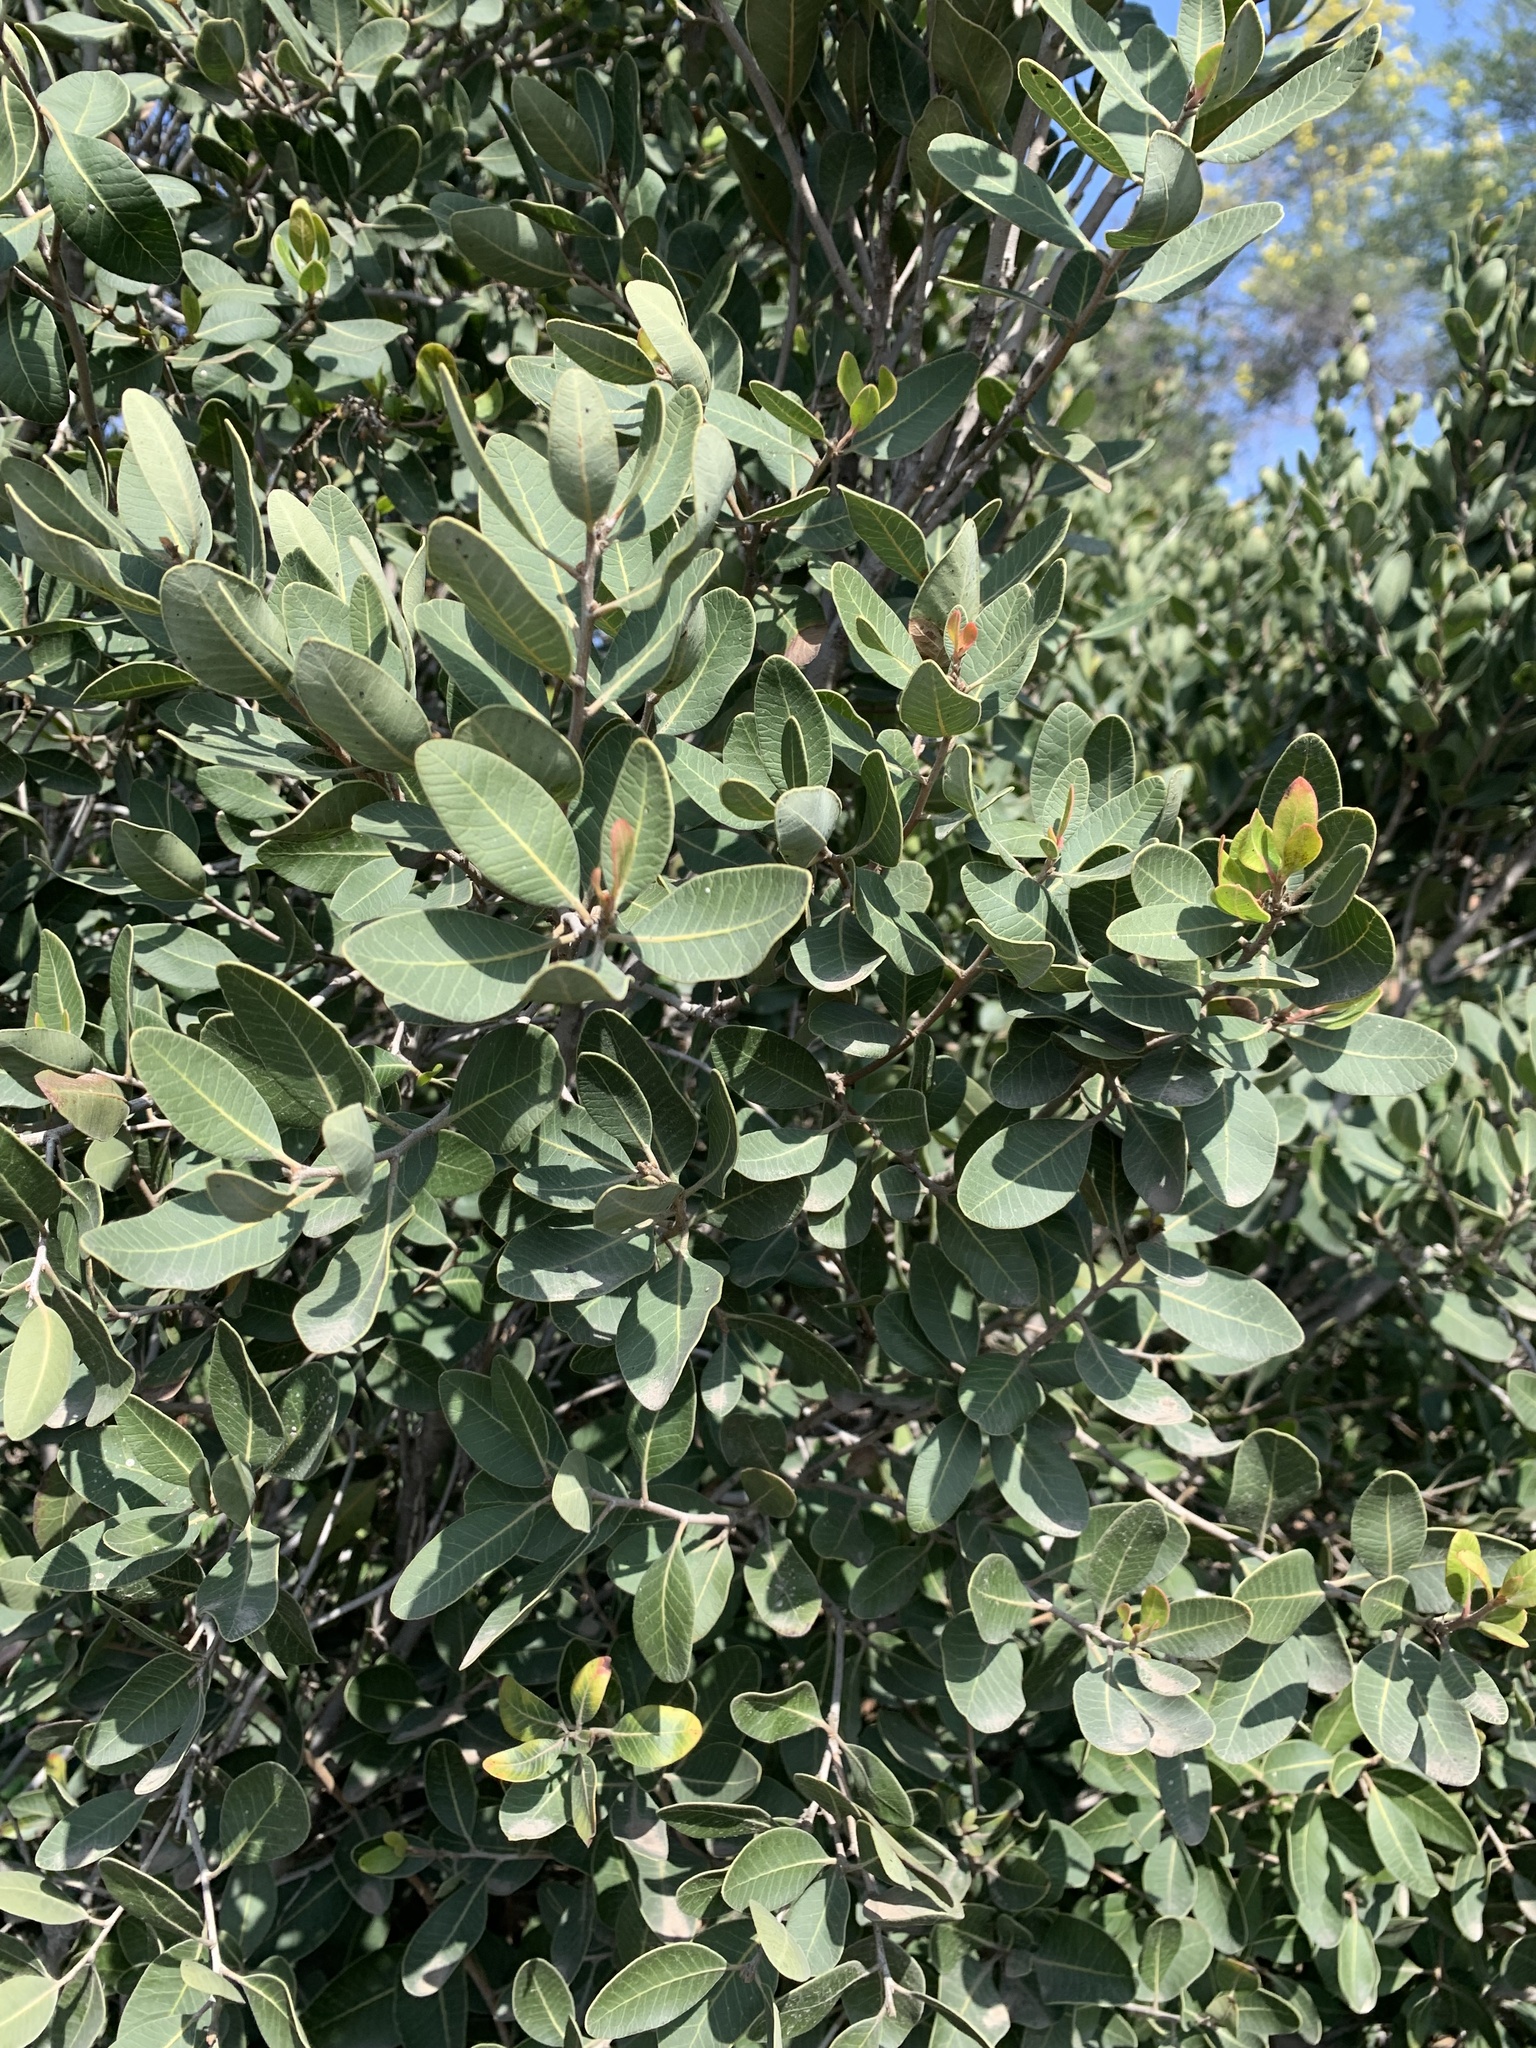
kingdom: Plantae
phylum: Tracheophyta
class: Magnoliopsida
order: Sapindales
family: Anacardiaceae
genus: Lithraea
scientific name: Lithraea caustica
